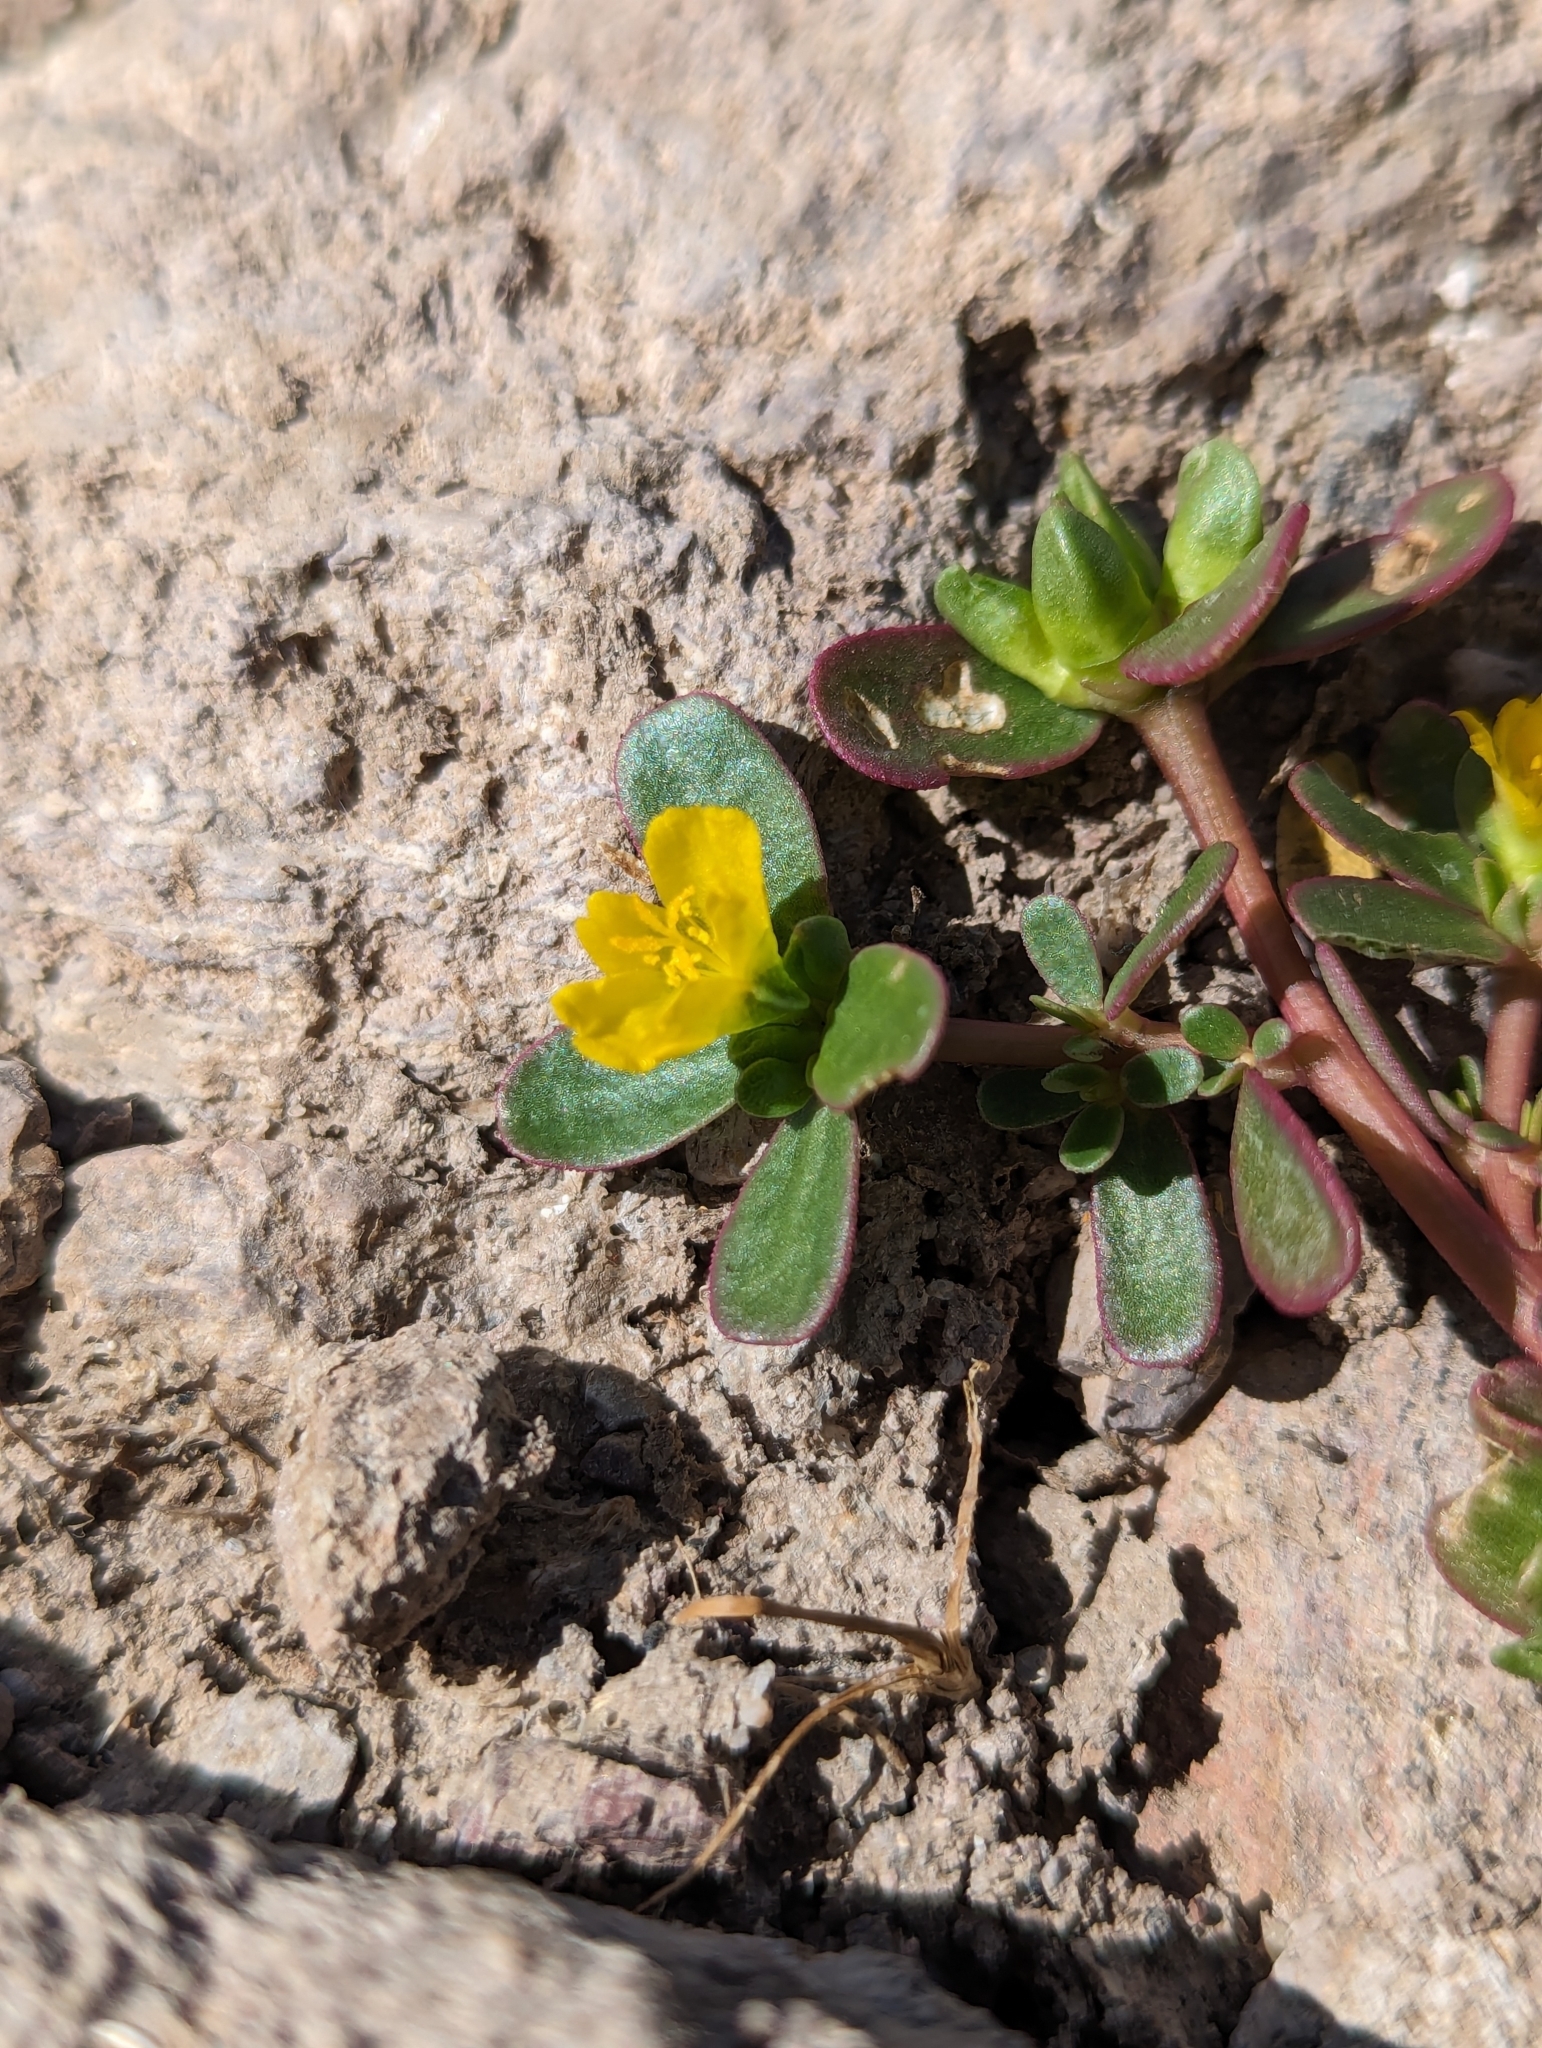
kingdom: Plantae
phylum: Tracheophyta
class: Magnoliopsida
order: Caryophyllales
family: Portulacaceae
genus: Portulaca
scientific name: Portulaca oleracea
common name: Common purslane
